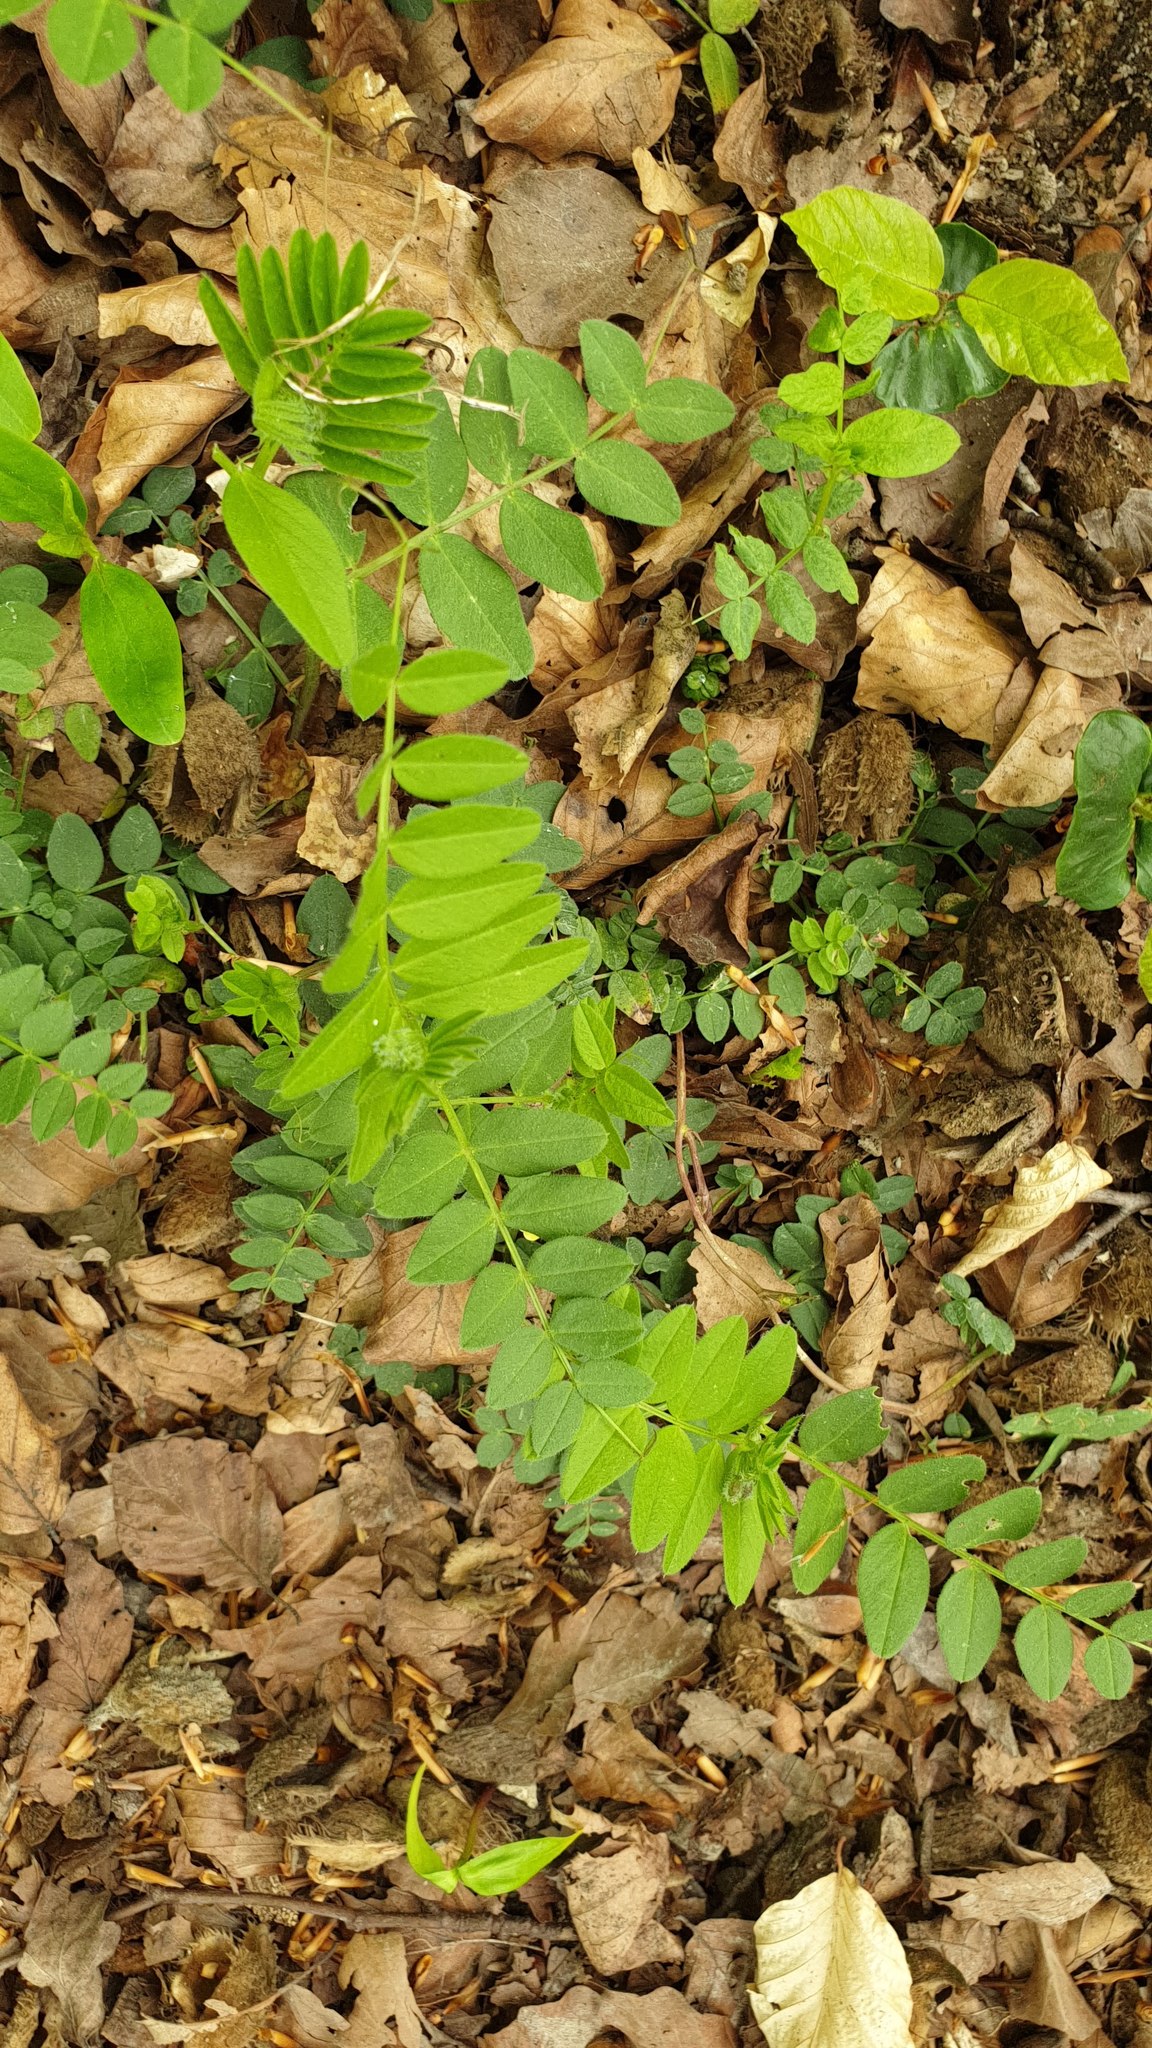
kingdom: Plantae
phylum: Tracheophyta
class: Magnoliopsida
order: Fabales
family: Fabaceae
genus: Vicia
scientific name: Vicia sepium
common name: Bush vetch
